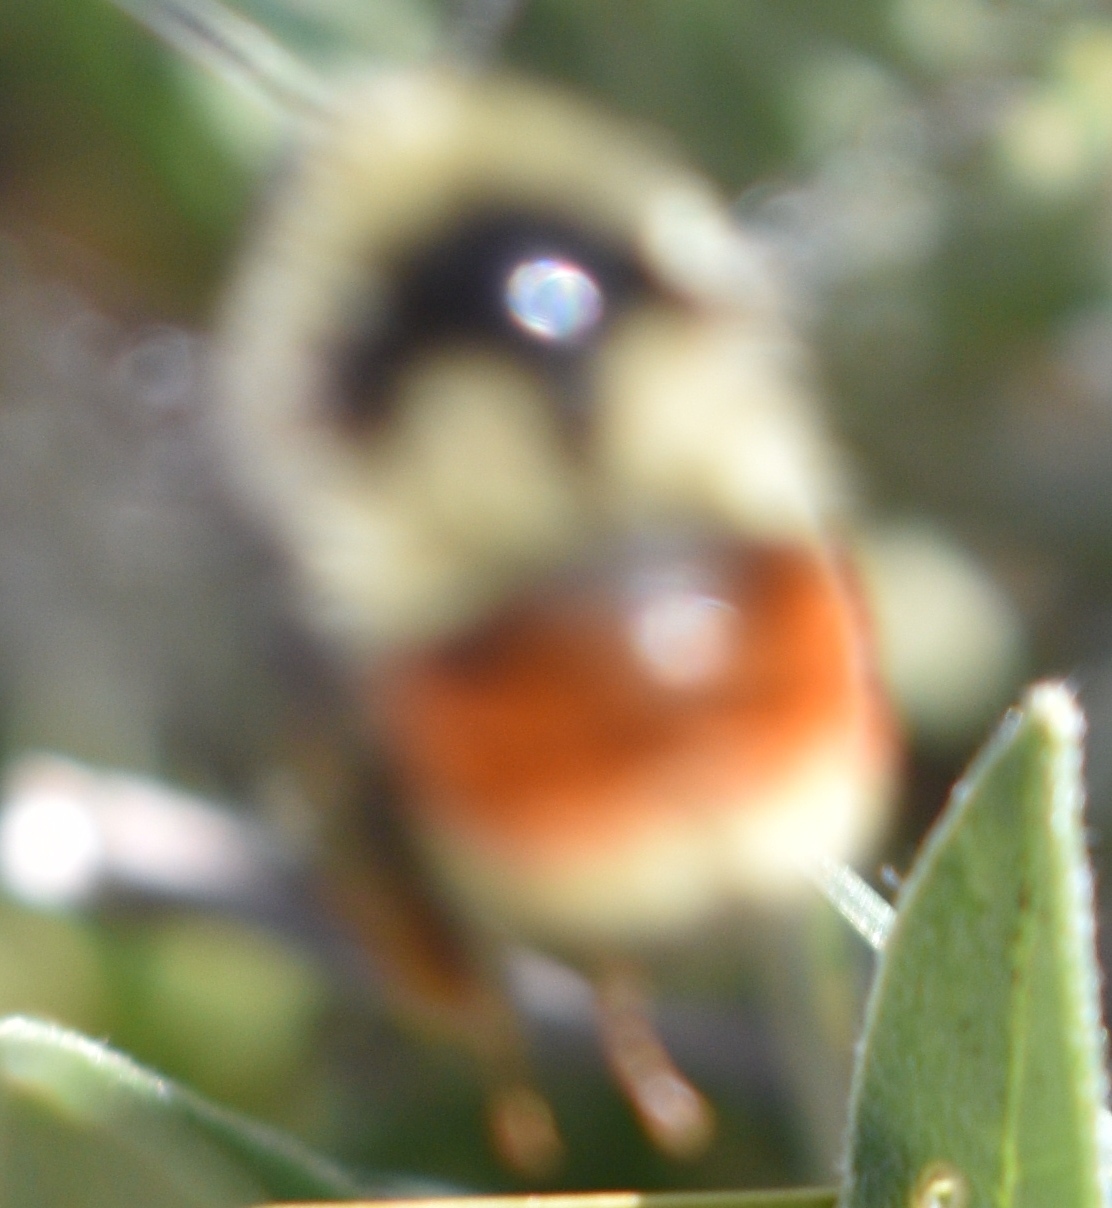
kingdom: Animalia
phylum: Arthropoda
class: Insecta
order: Hymenoptera
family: Apidae
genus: Pyrobombus
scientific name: Pyrobombus
